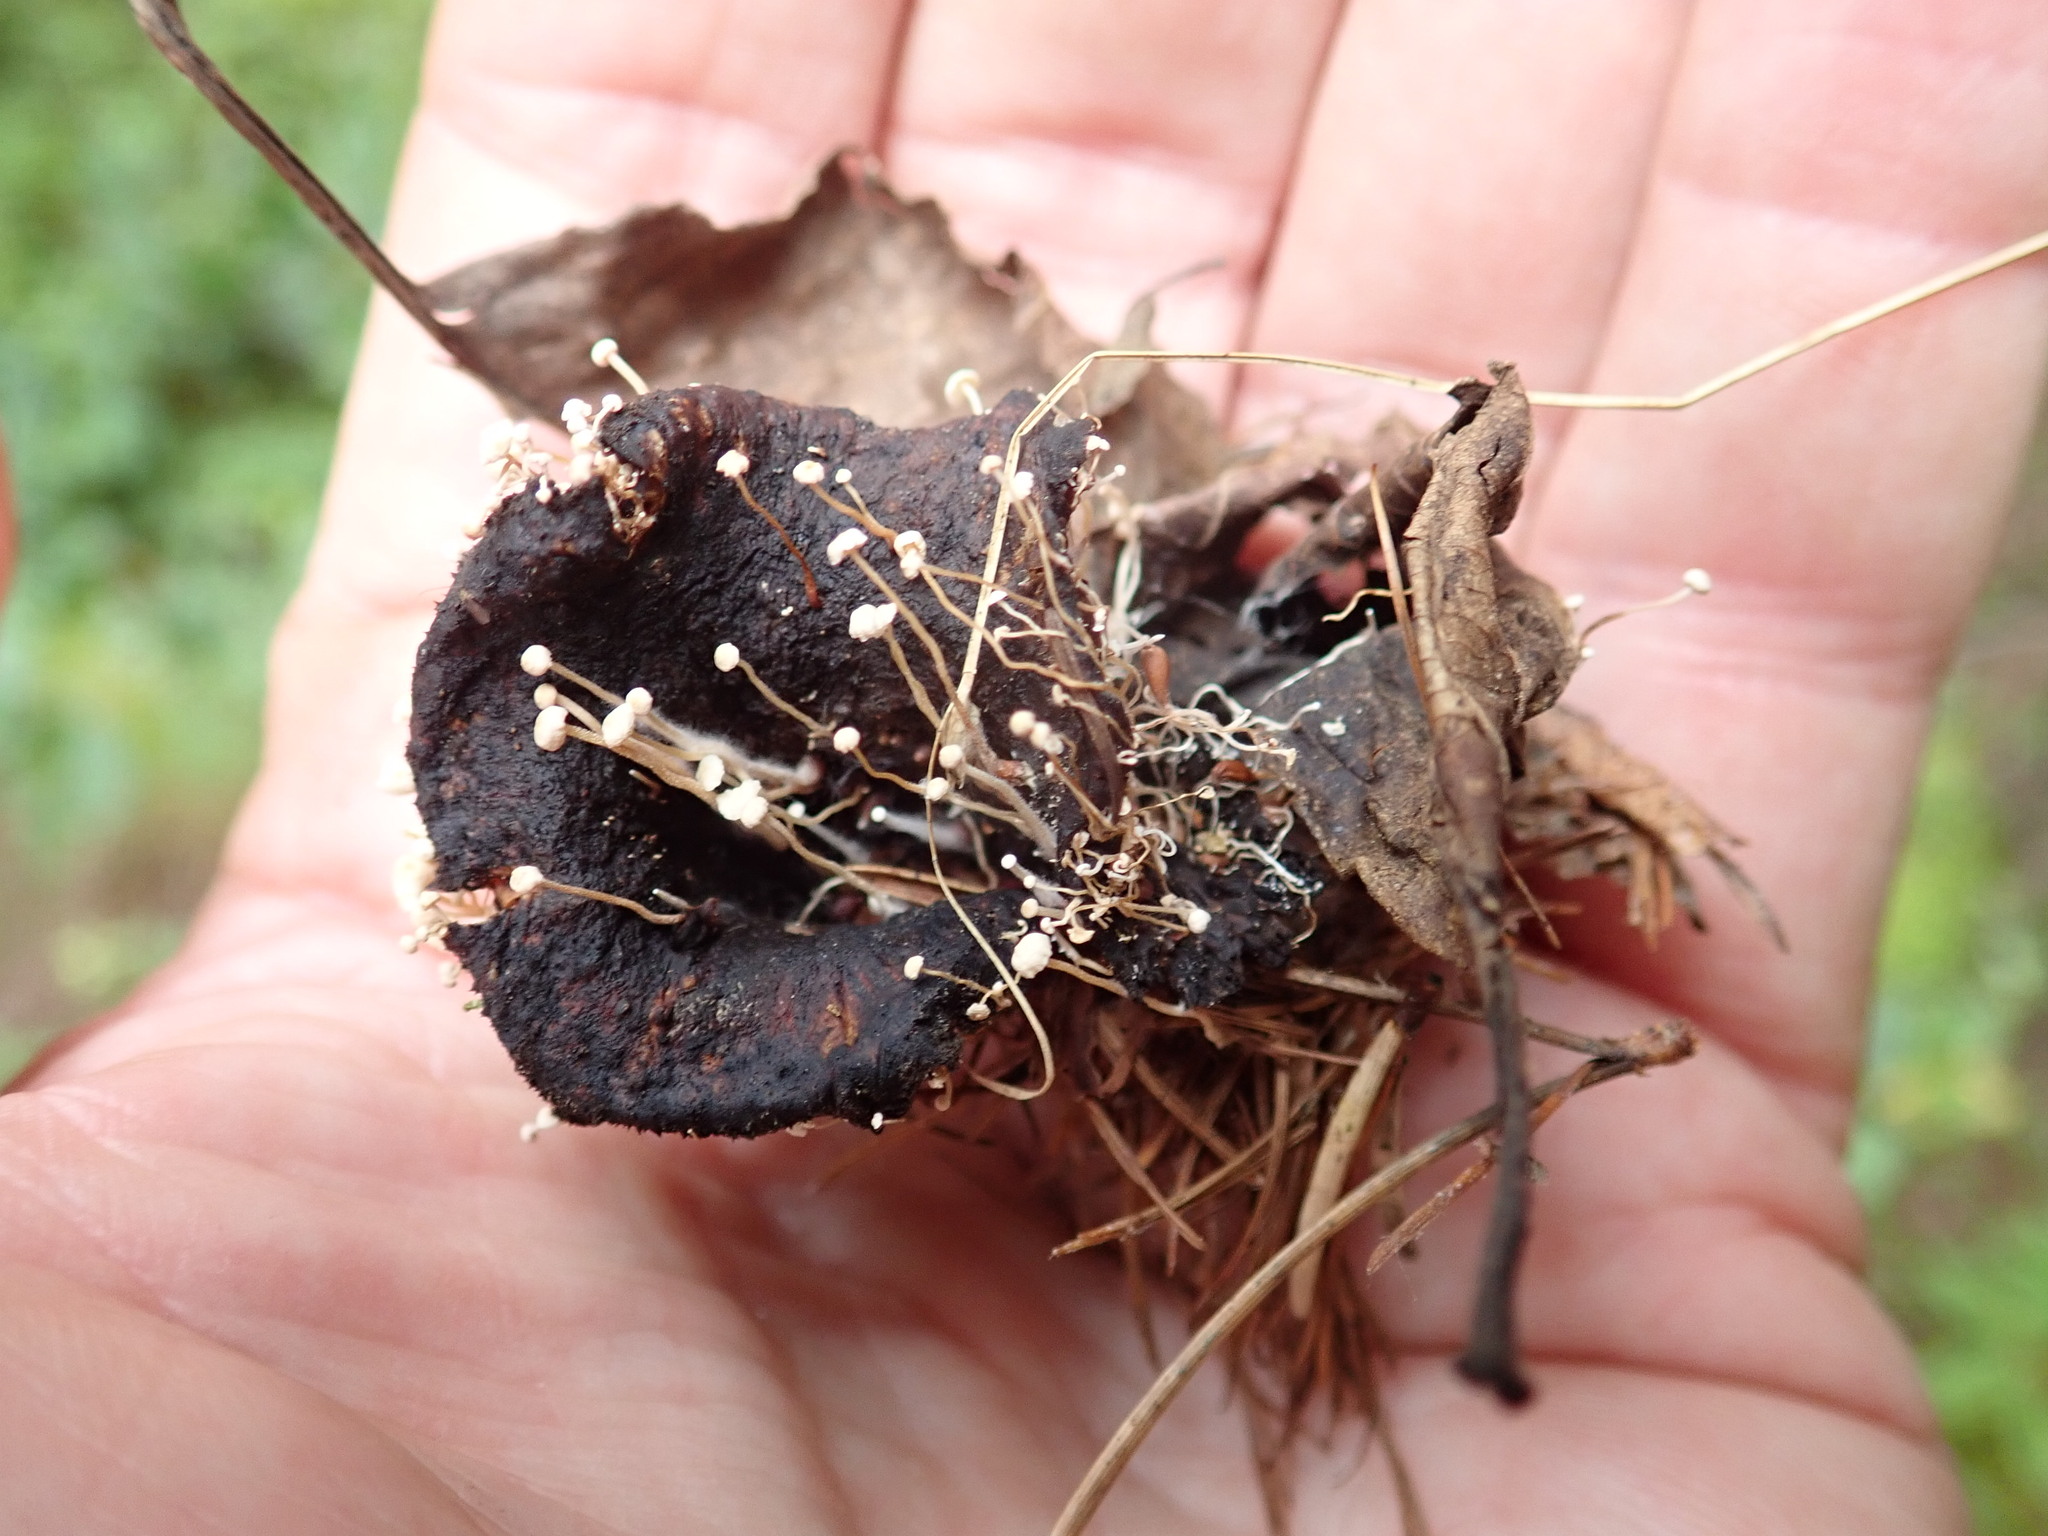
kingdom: Fungi
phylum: Basidiomycota
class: Agaricomycetes
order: Agaricales
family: Tricholomataceae
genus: Collybia
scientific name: Collybia tuberosa
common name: Lentil shanklet
